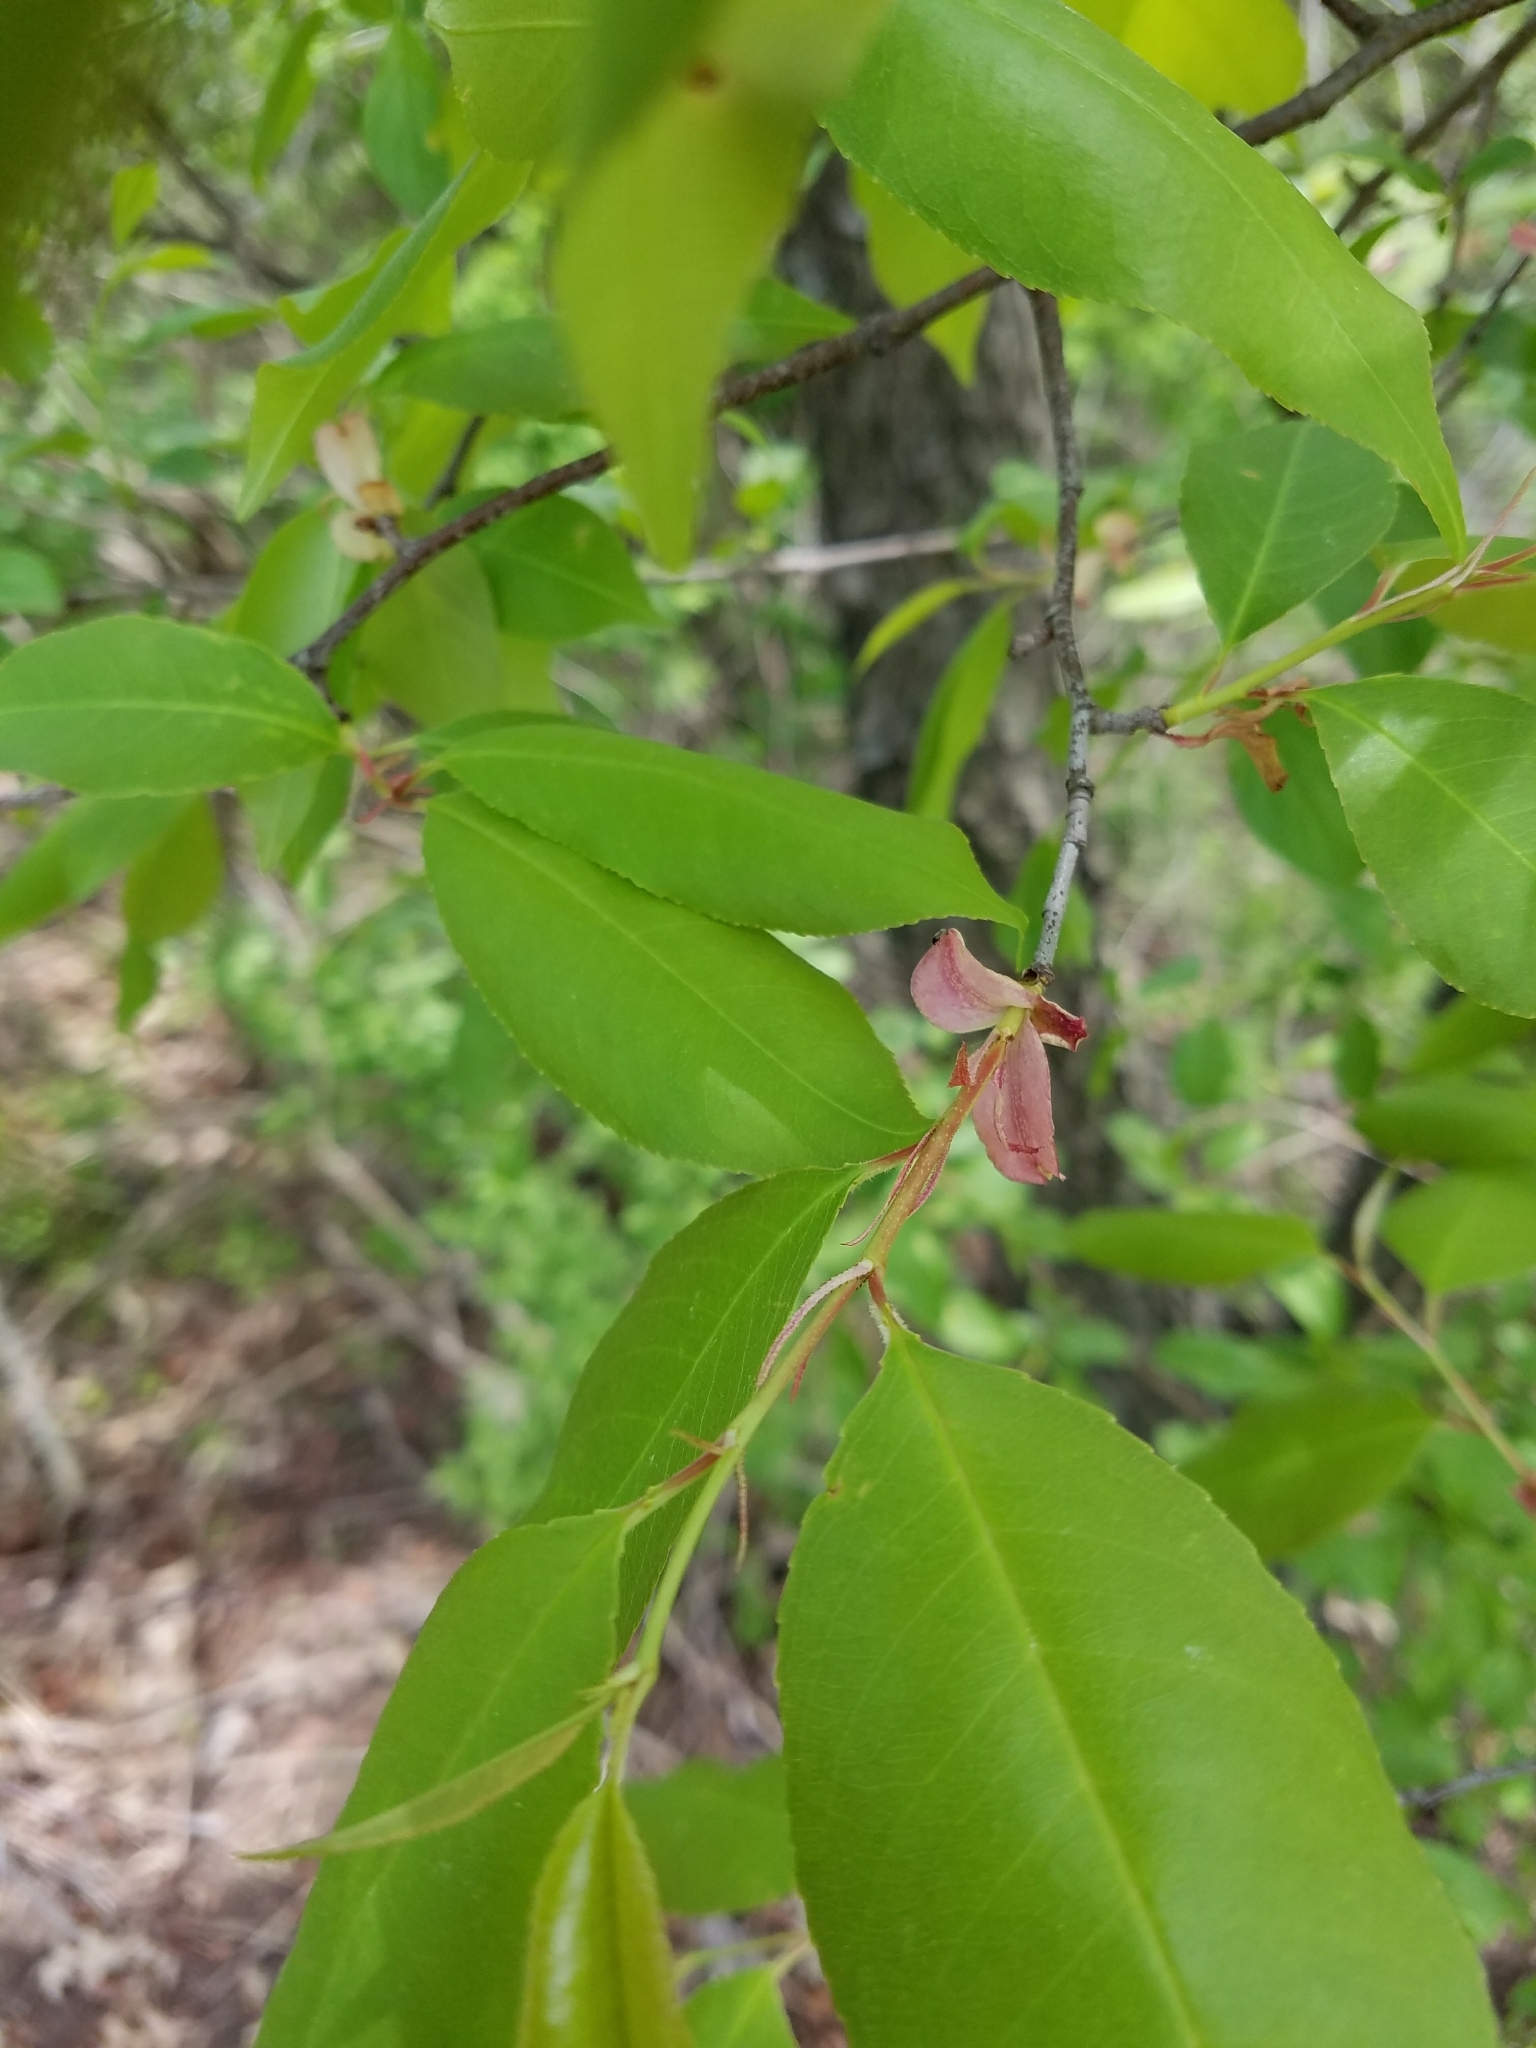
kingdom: Plantae
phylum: Tracheophyta
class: Magnoliopsida
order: Rosales
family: Rosaceae
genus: Prunus
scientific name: Prunus serotina
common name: Black cherry
